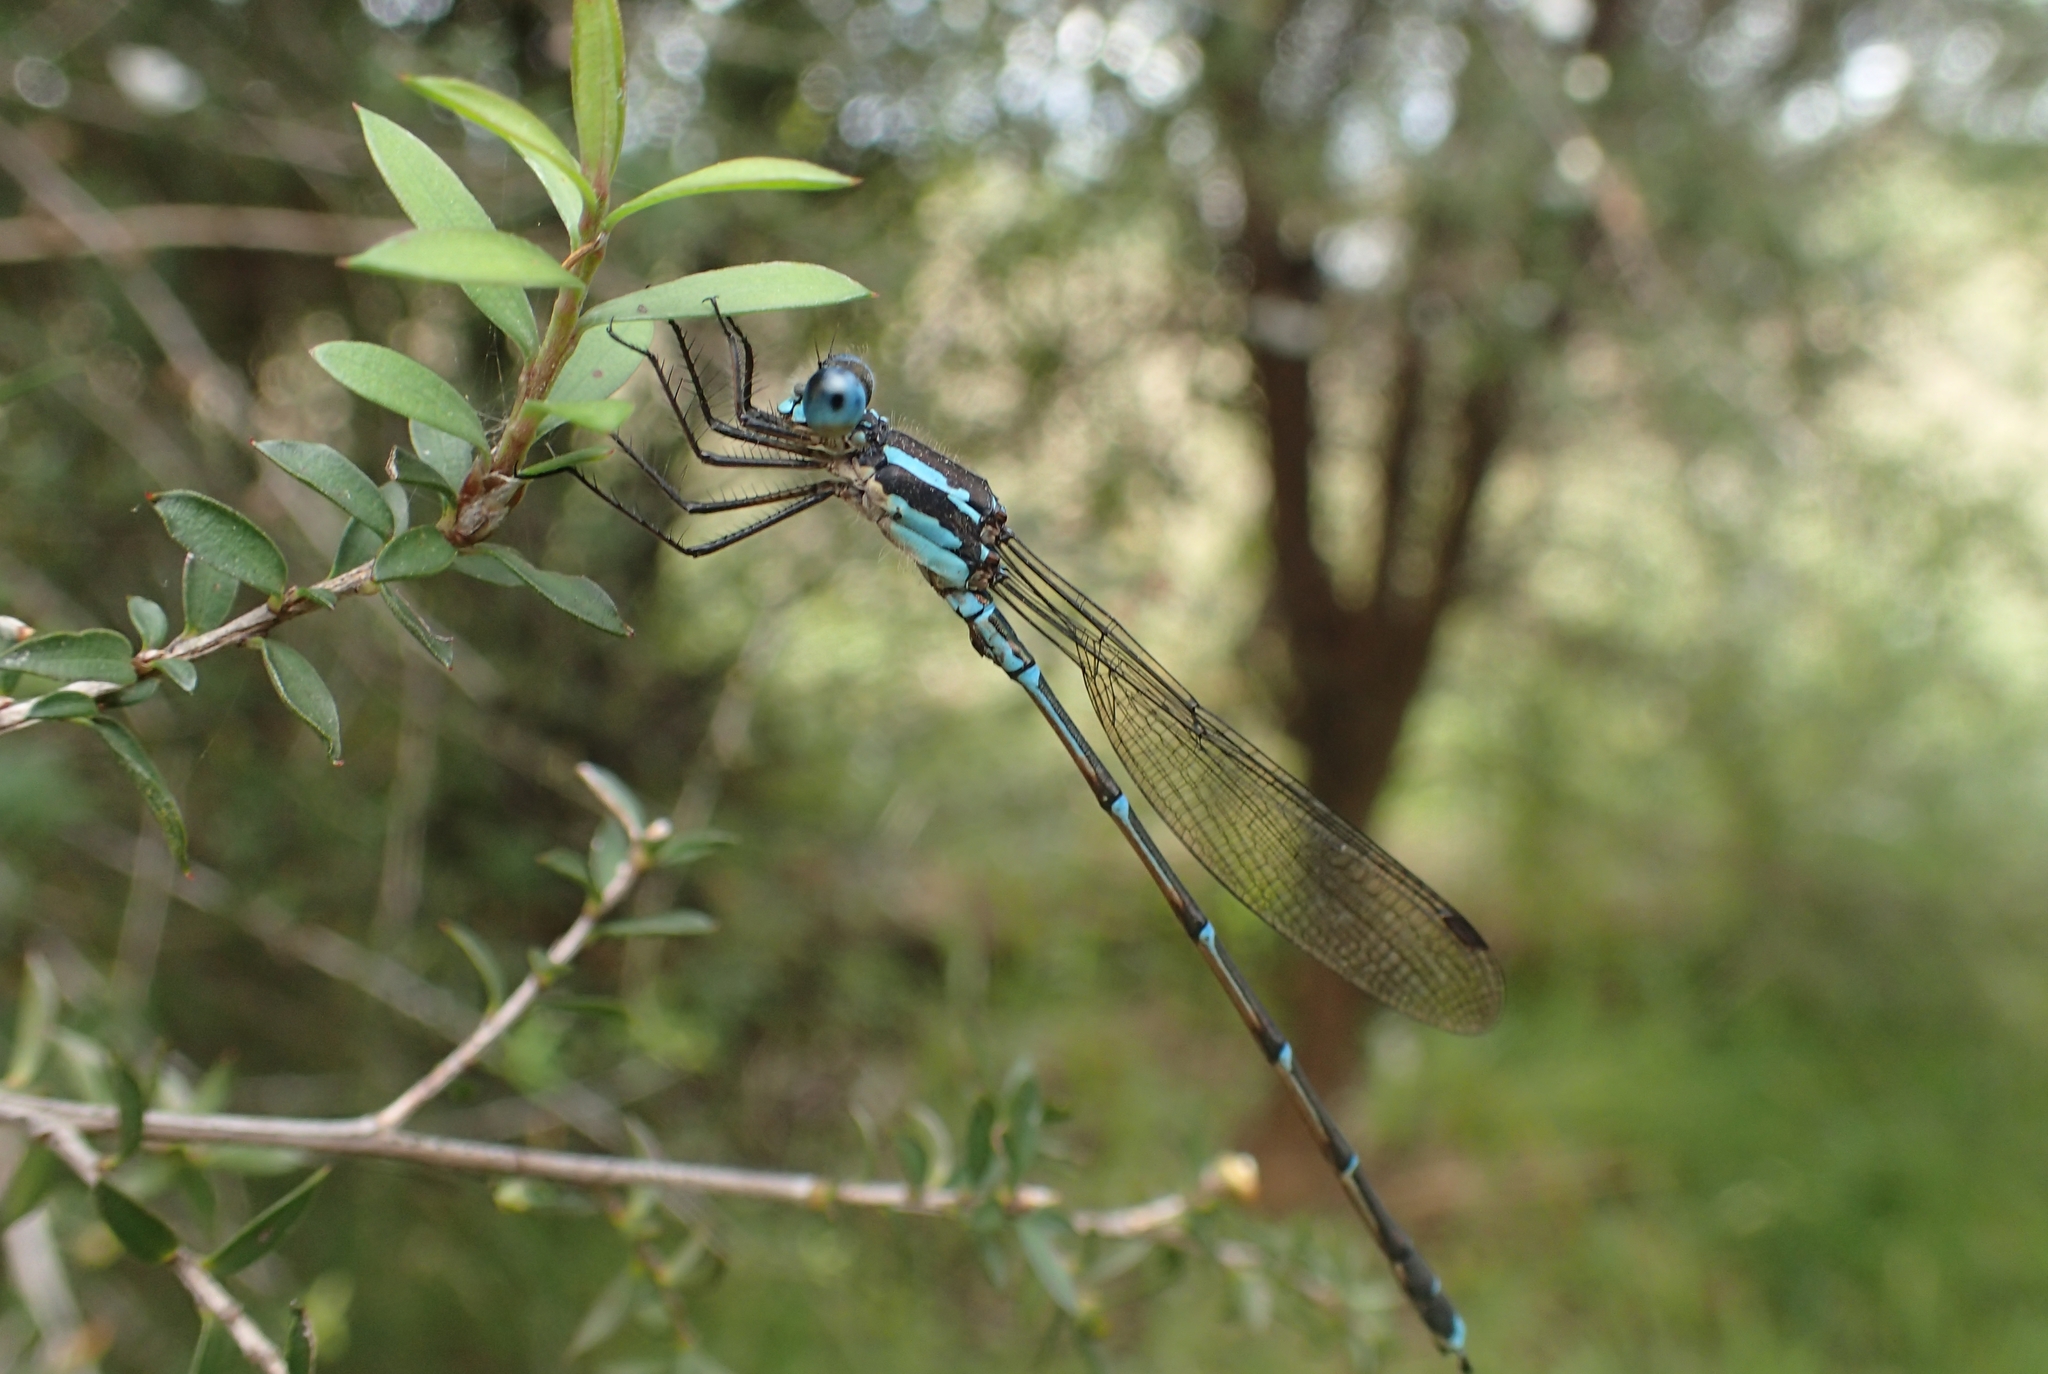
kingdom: Animalia
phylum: Arthropoda
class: Insecta
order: Odonata
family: Lestidae
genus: Austrolestes
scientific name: Austrolestes colensonis
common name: Blue damselfly
